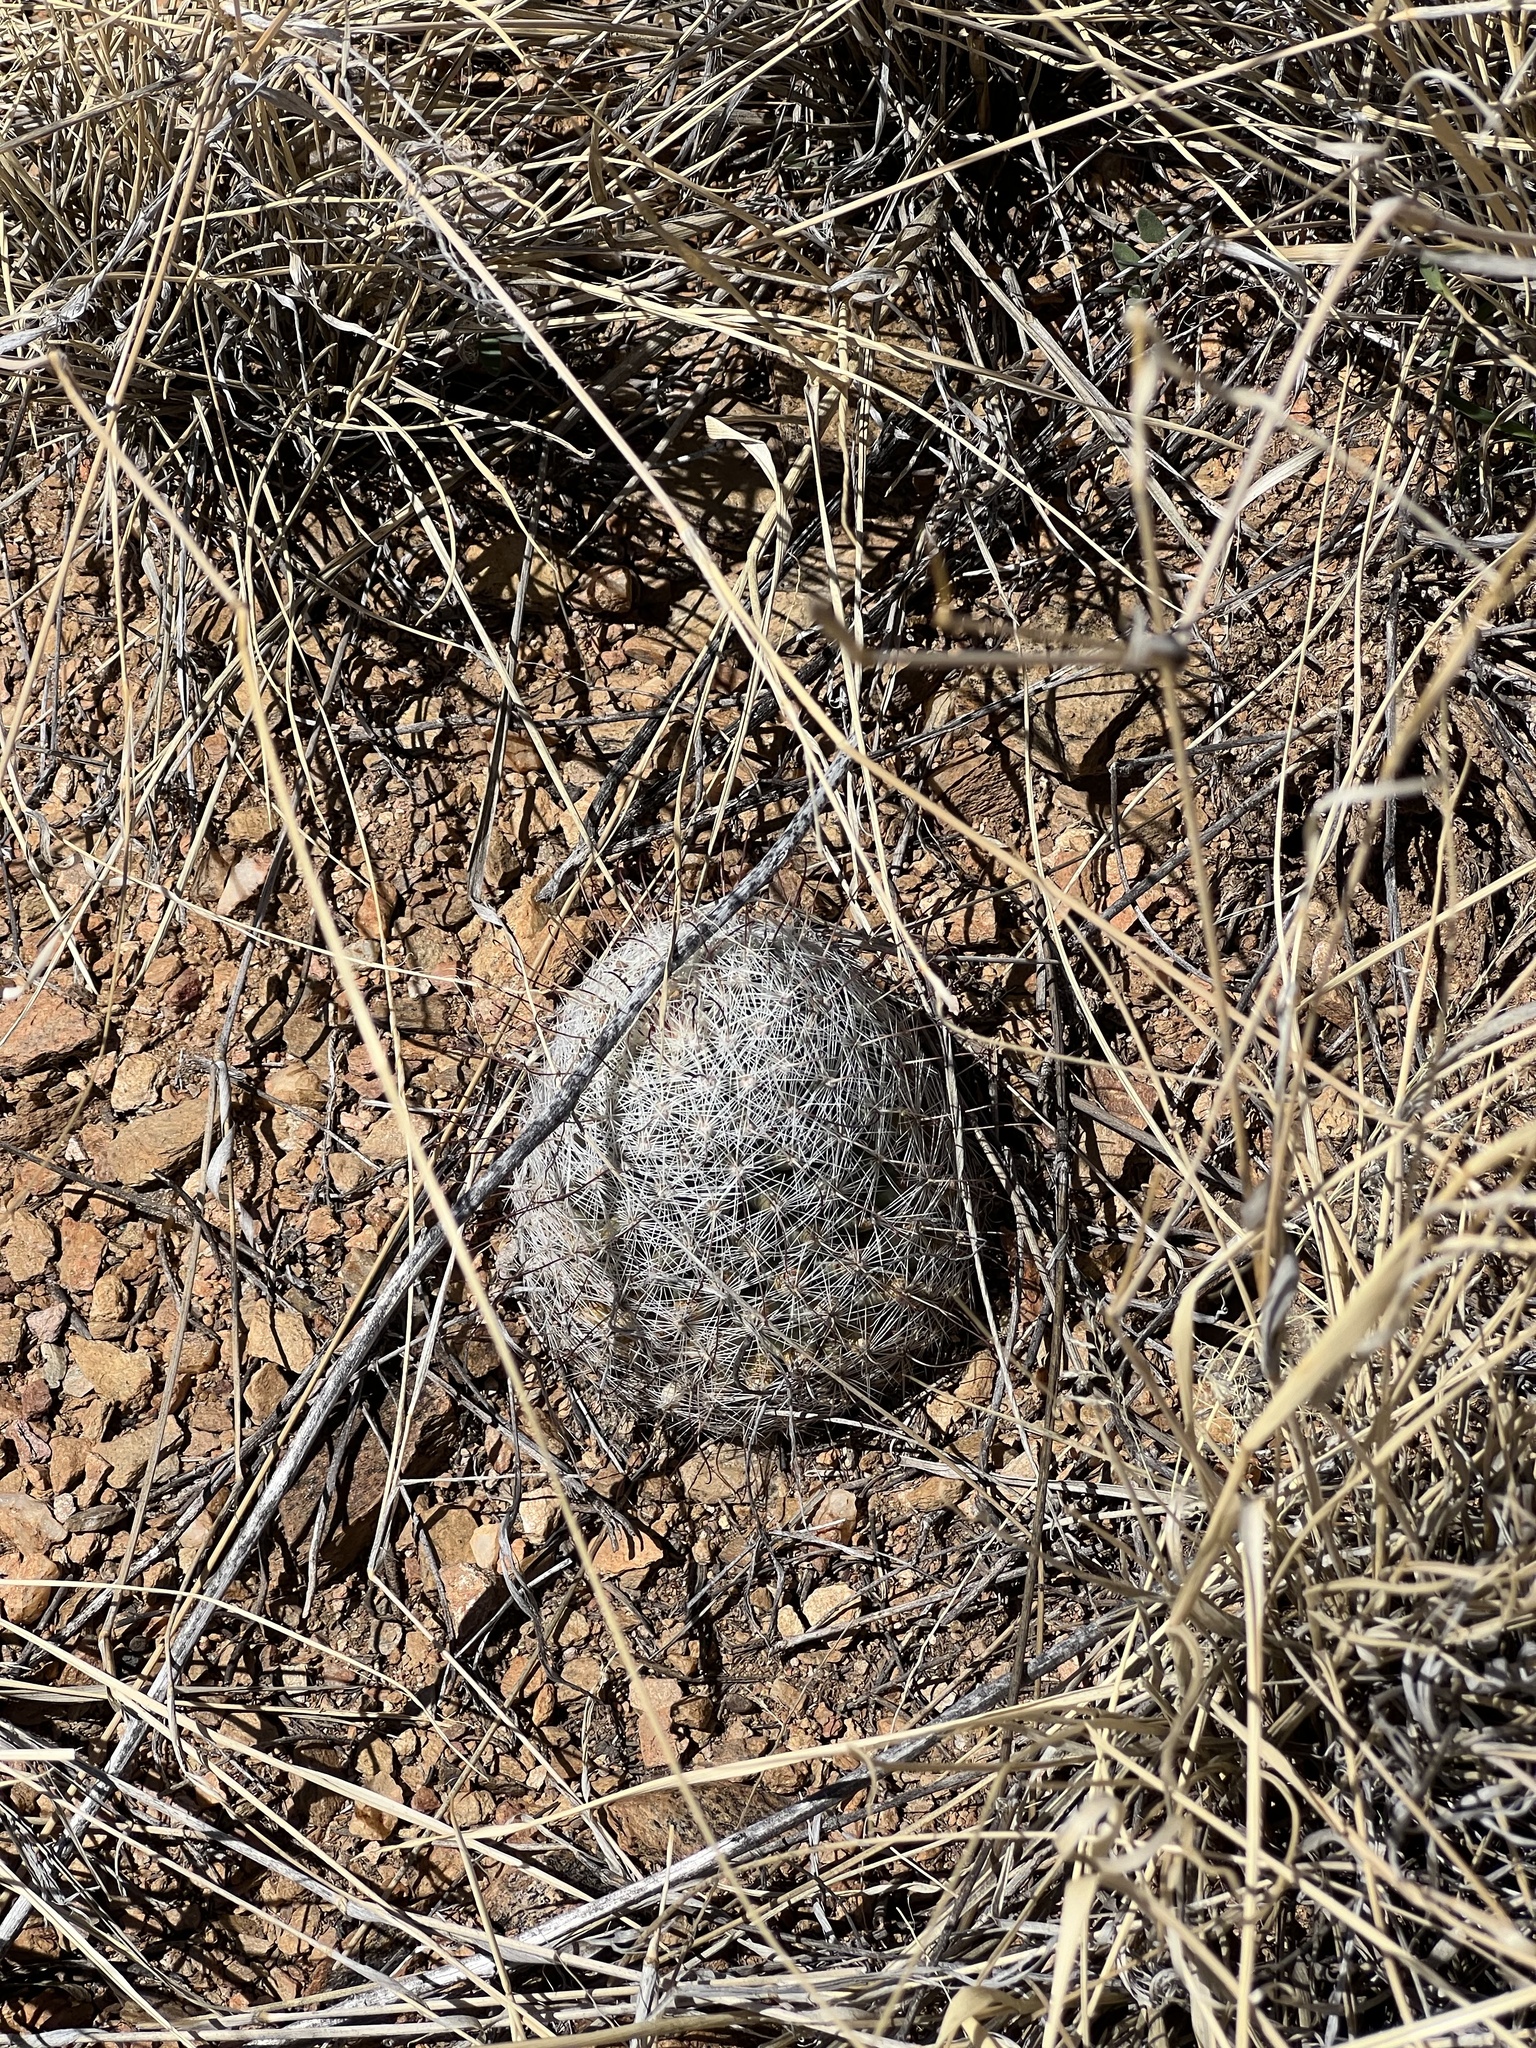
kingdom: Plantae
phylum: Tracheophyta
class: Magnoliopsida
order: Caryophyllales
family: Cactaceae
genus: Cochemiea
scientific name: Cochemiea grahamii
